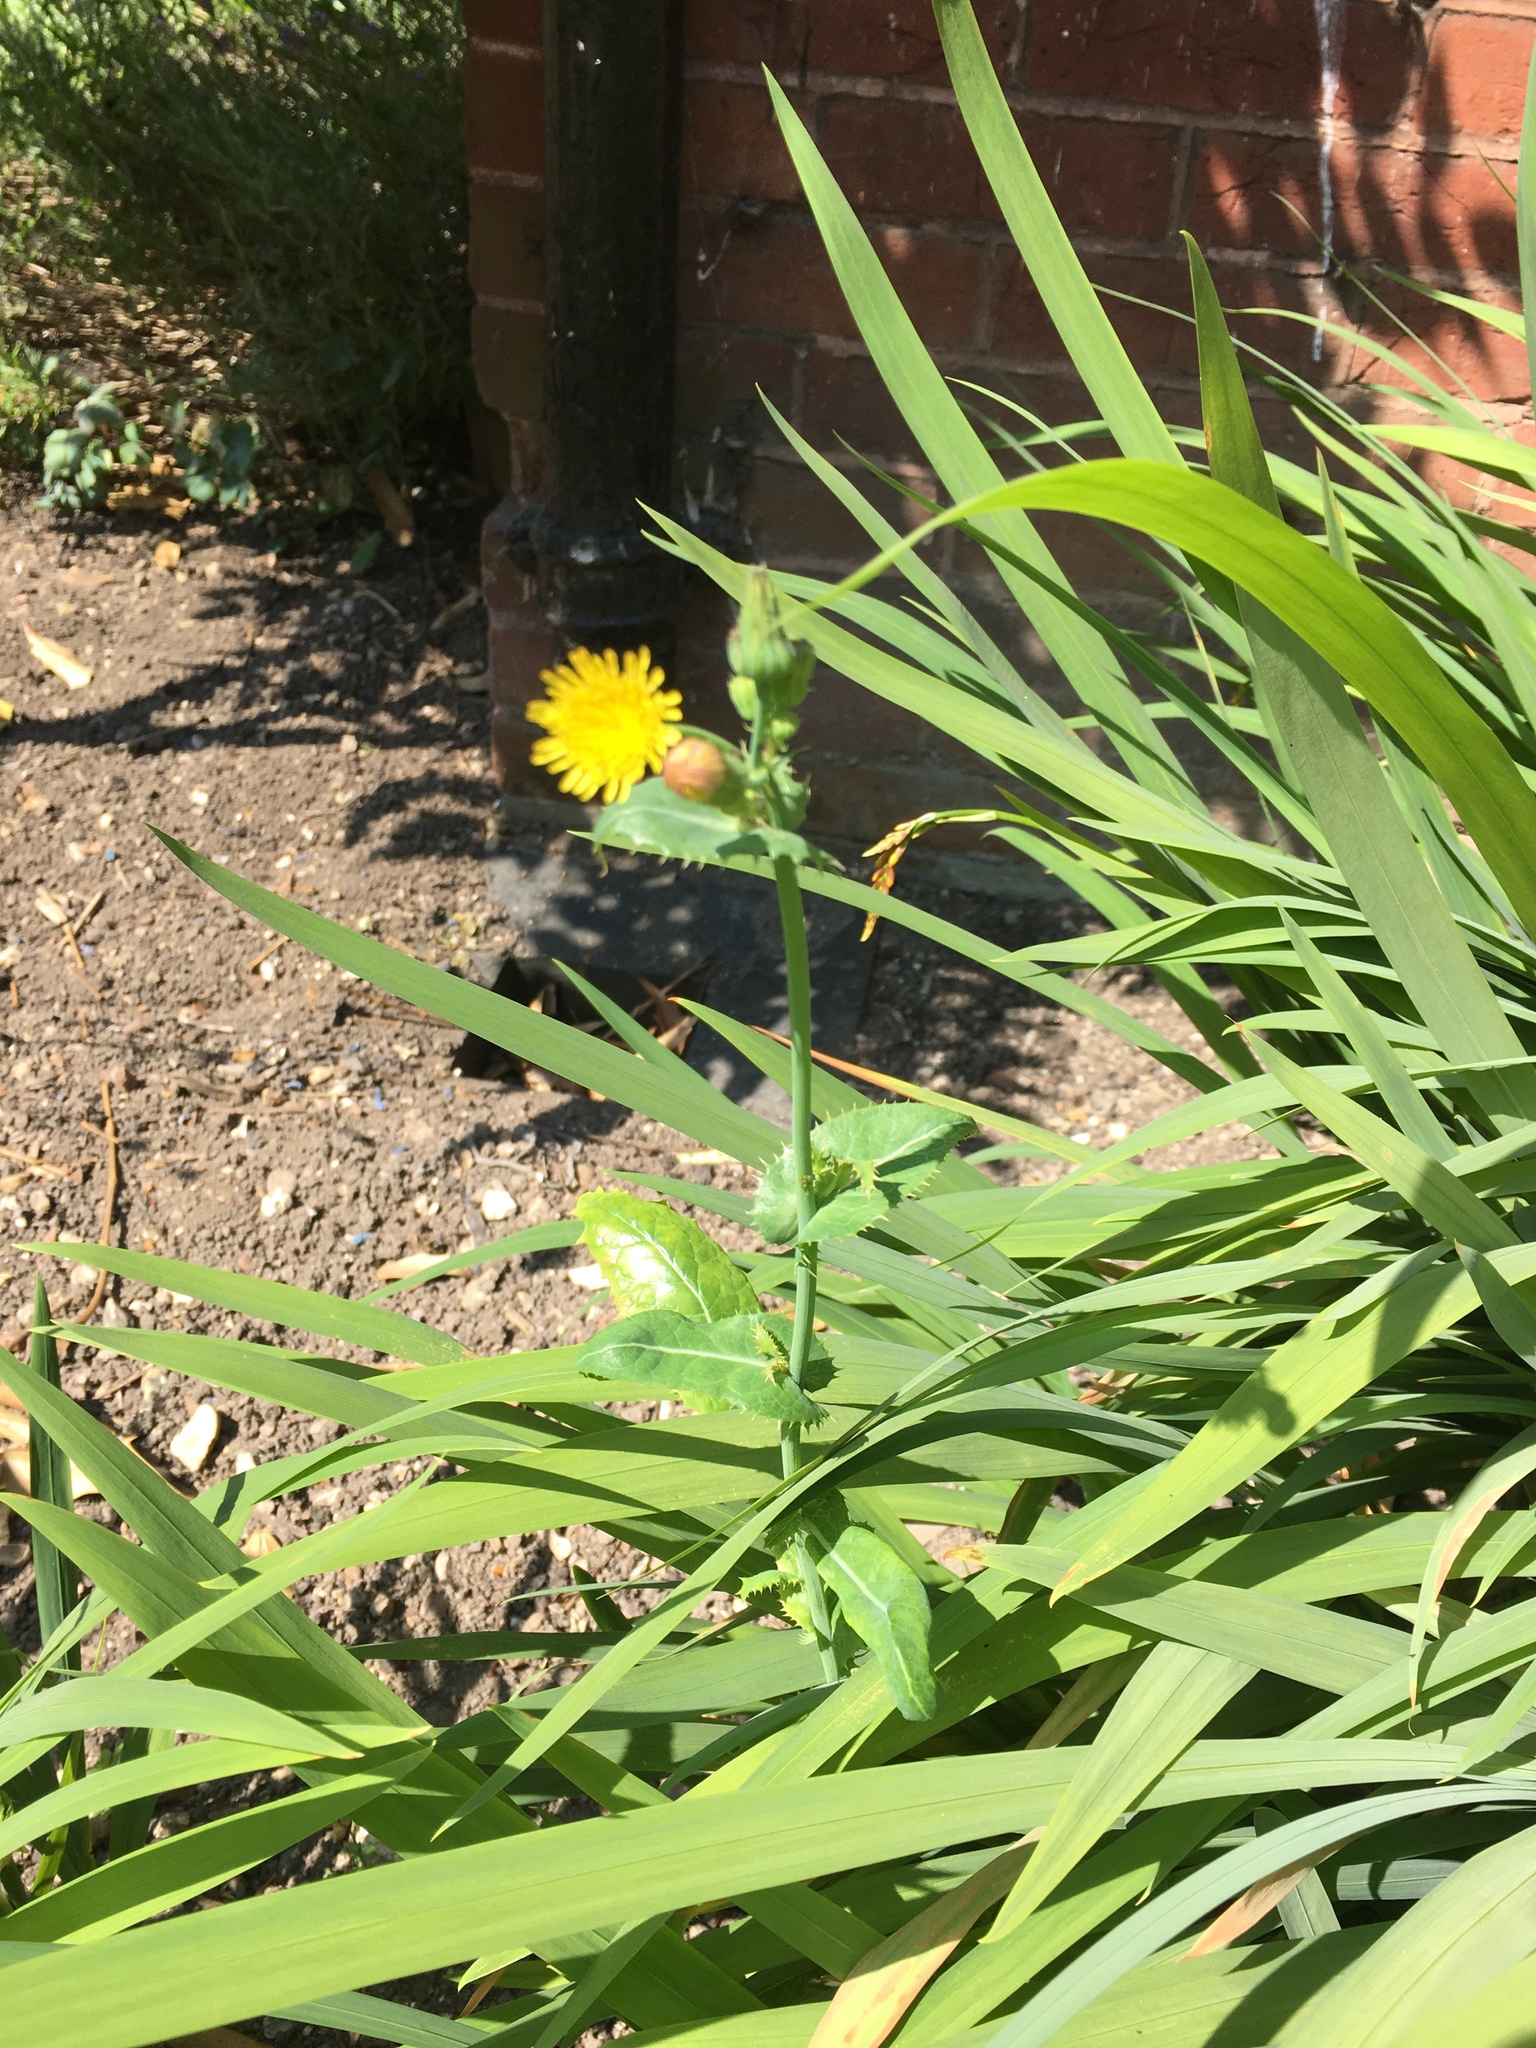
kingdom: Plantae
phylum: Tracheophyta
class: Magnoliopsida
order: Asterales
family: Asteraceae
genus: Sonchus
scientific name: Sonchus oleraceus
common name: Common sowthistle
